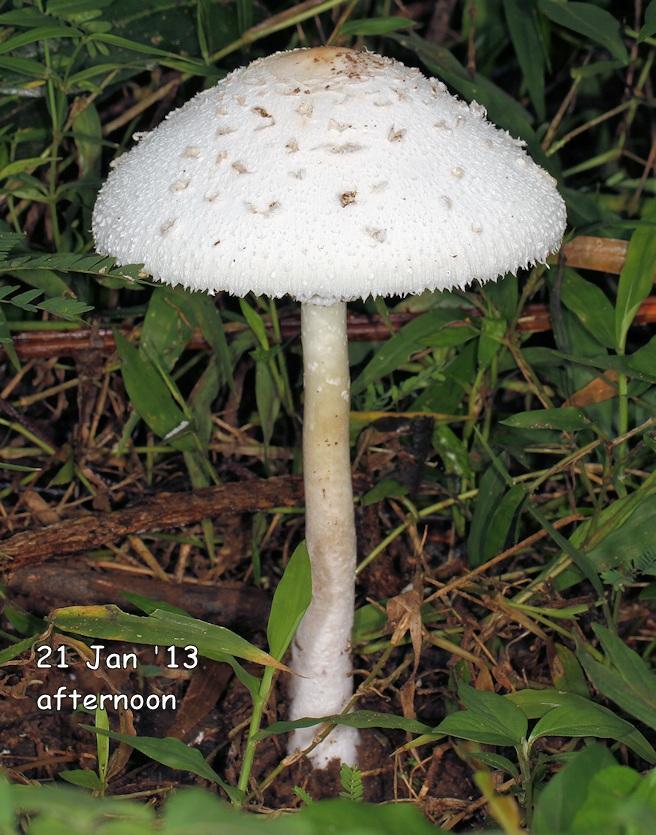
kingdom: Fungi
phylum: Basidiomycota
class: Agaricomycetes
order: Agaricales
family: Agaricaceae
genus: Macrolepiota
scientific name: Macrolepiota zeyheri
